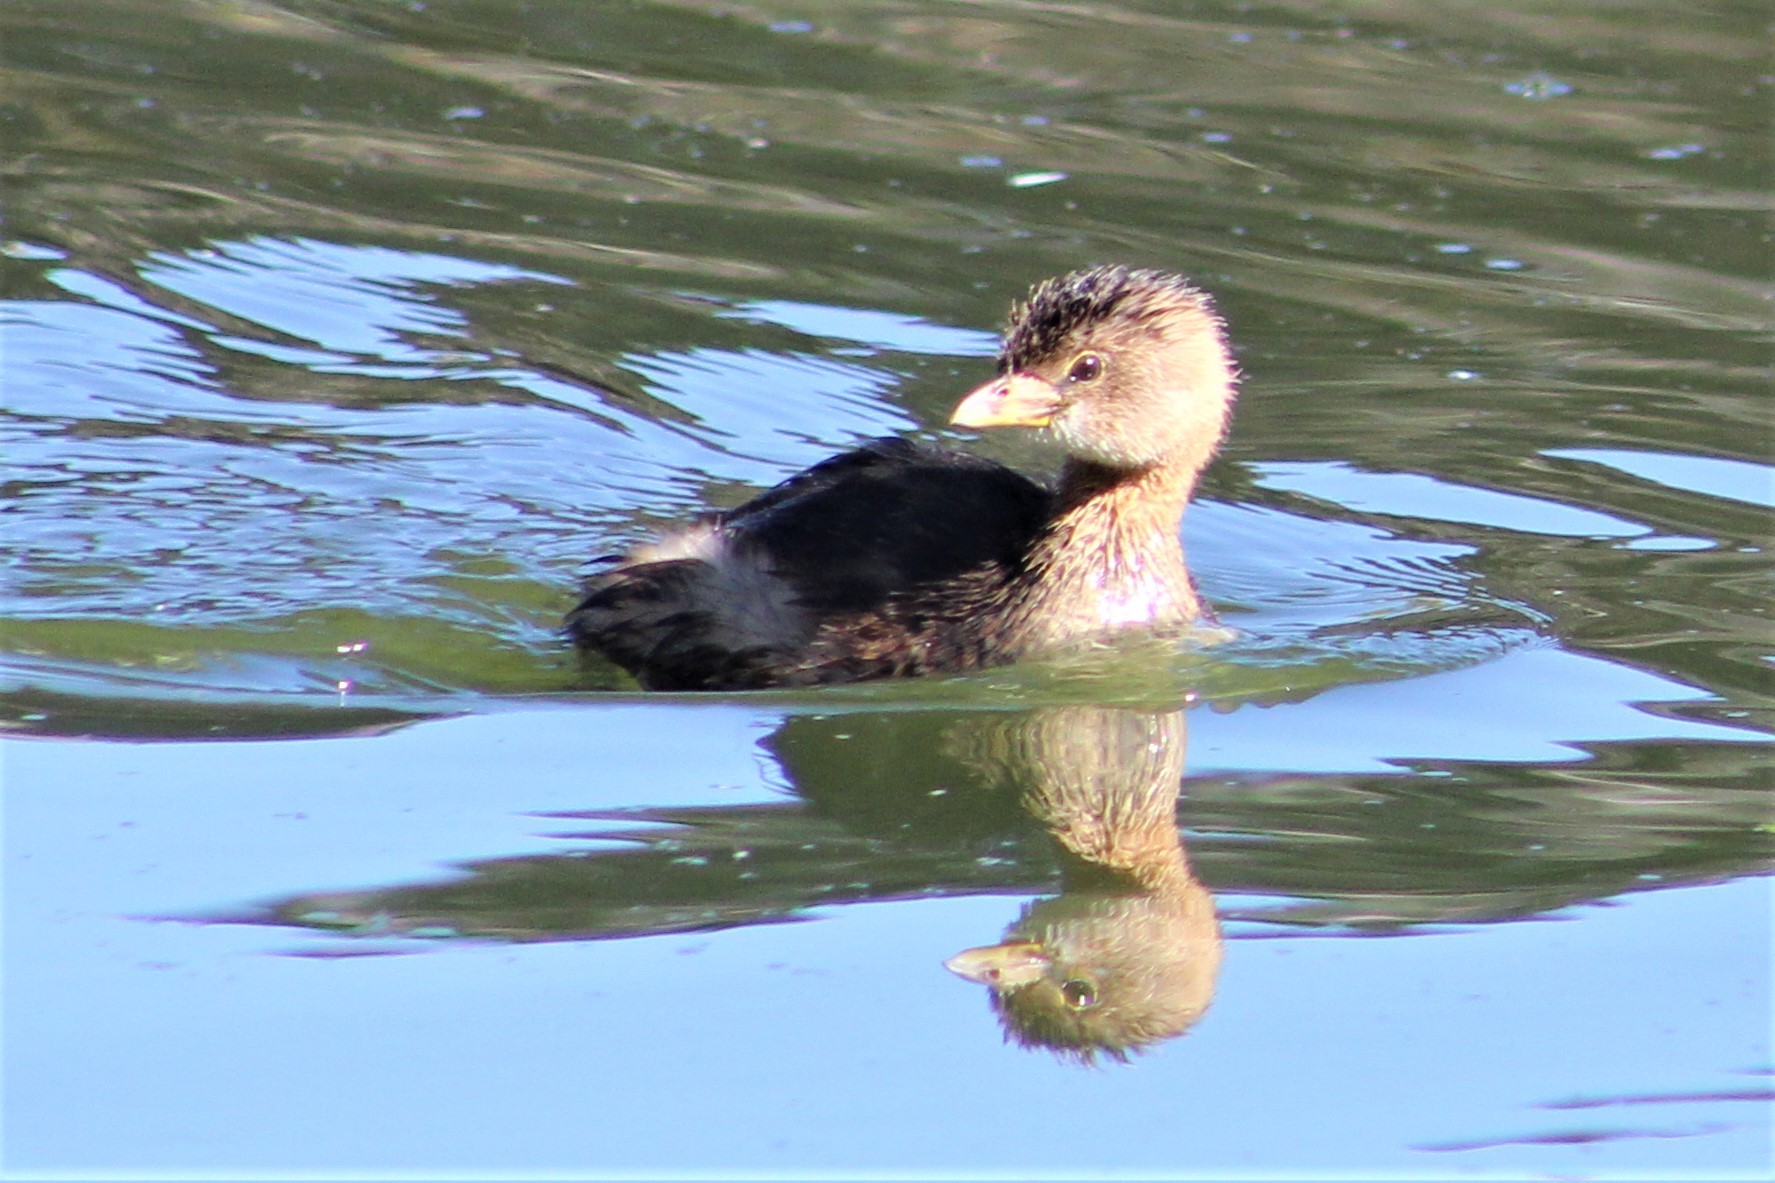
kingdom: Animalia
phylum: Chordata
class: Aves
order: Podicipediformes
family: Podicipedidae
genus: Podilymbus
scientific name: Podilymbus podiceps
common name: Pied-billed grebe
